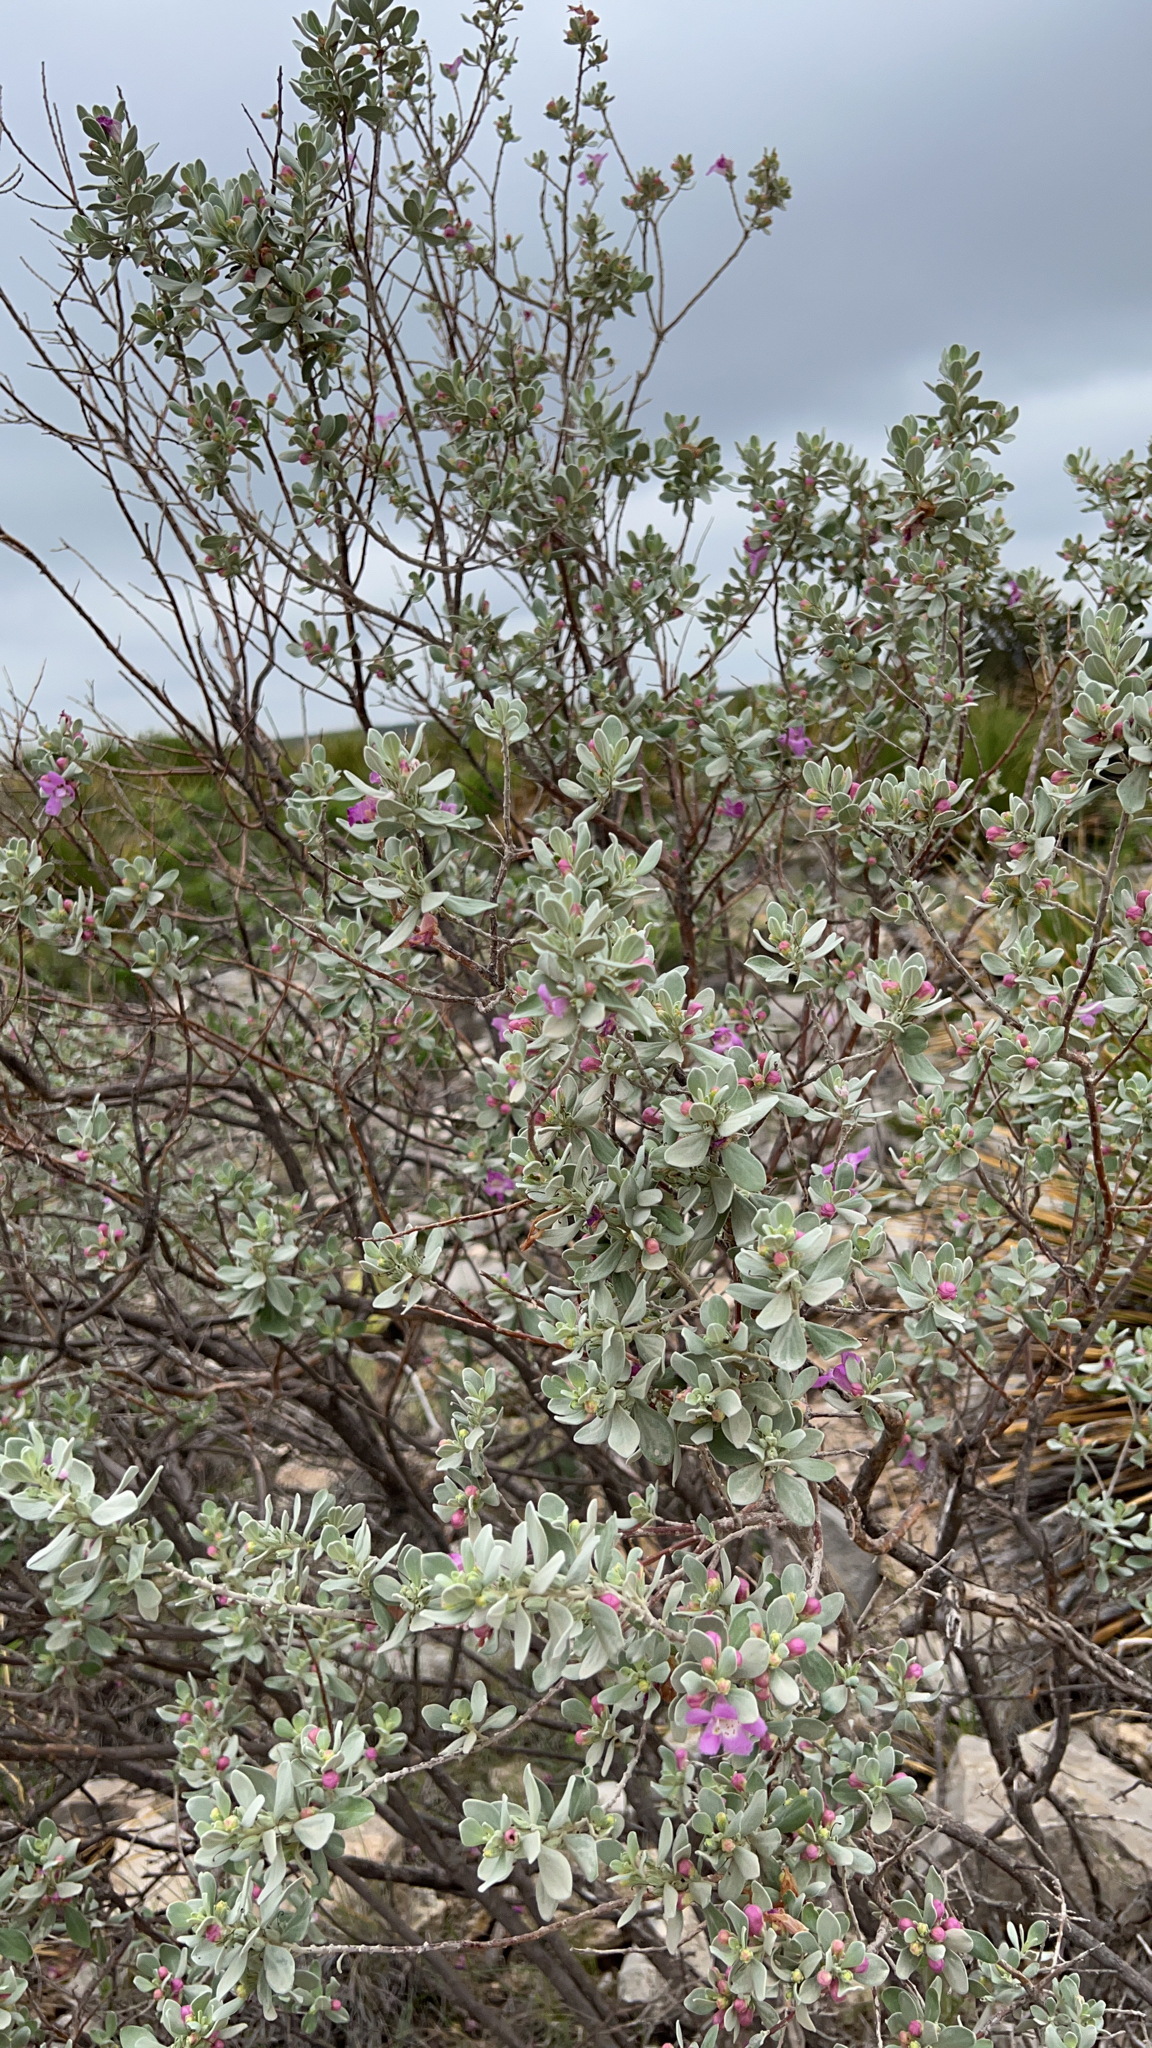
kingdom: Plantae
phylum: Tracheophyta
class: Magnoliopsida
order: Lamiales
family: Scrophulariaceae
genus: Leucophyllum
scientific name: Leucophyllum frutescens
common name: Texas silverleaf
